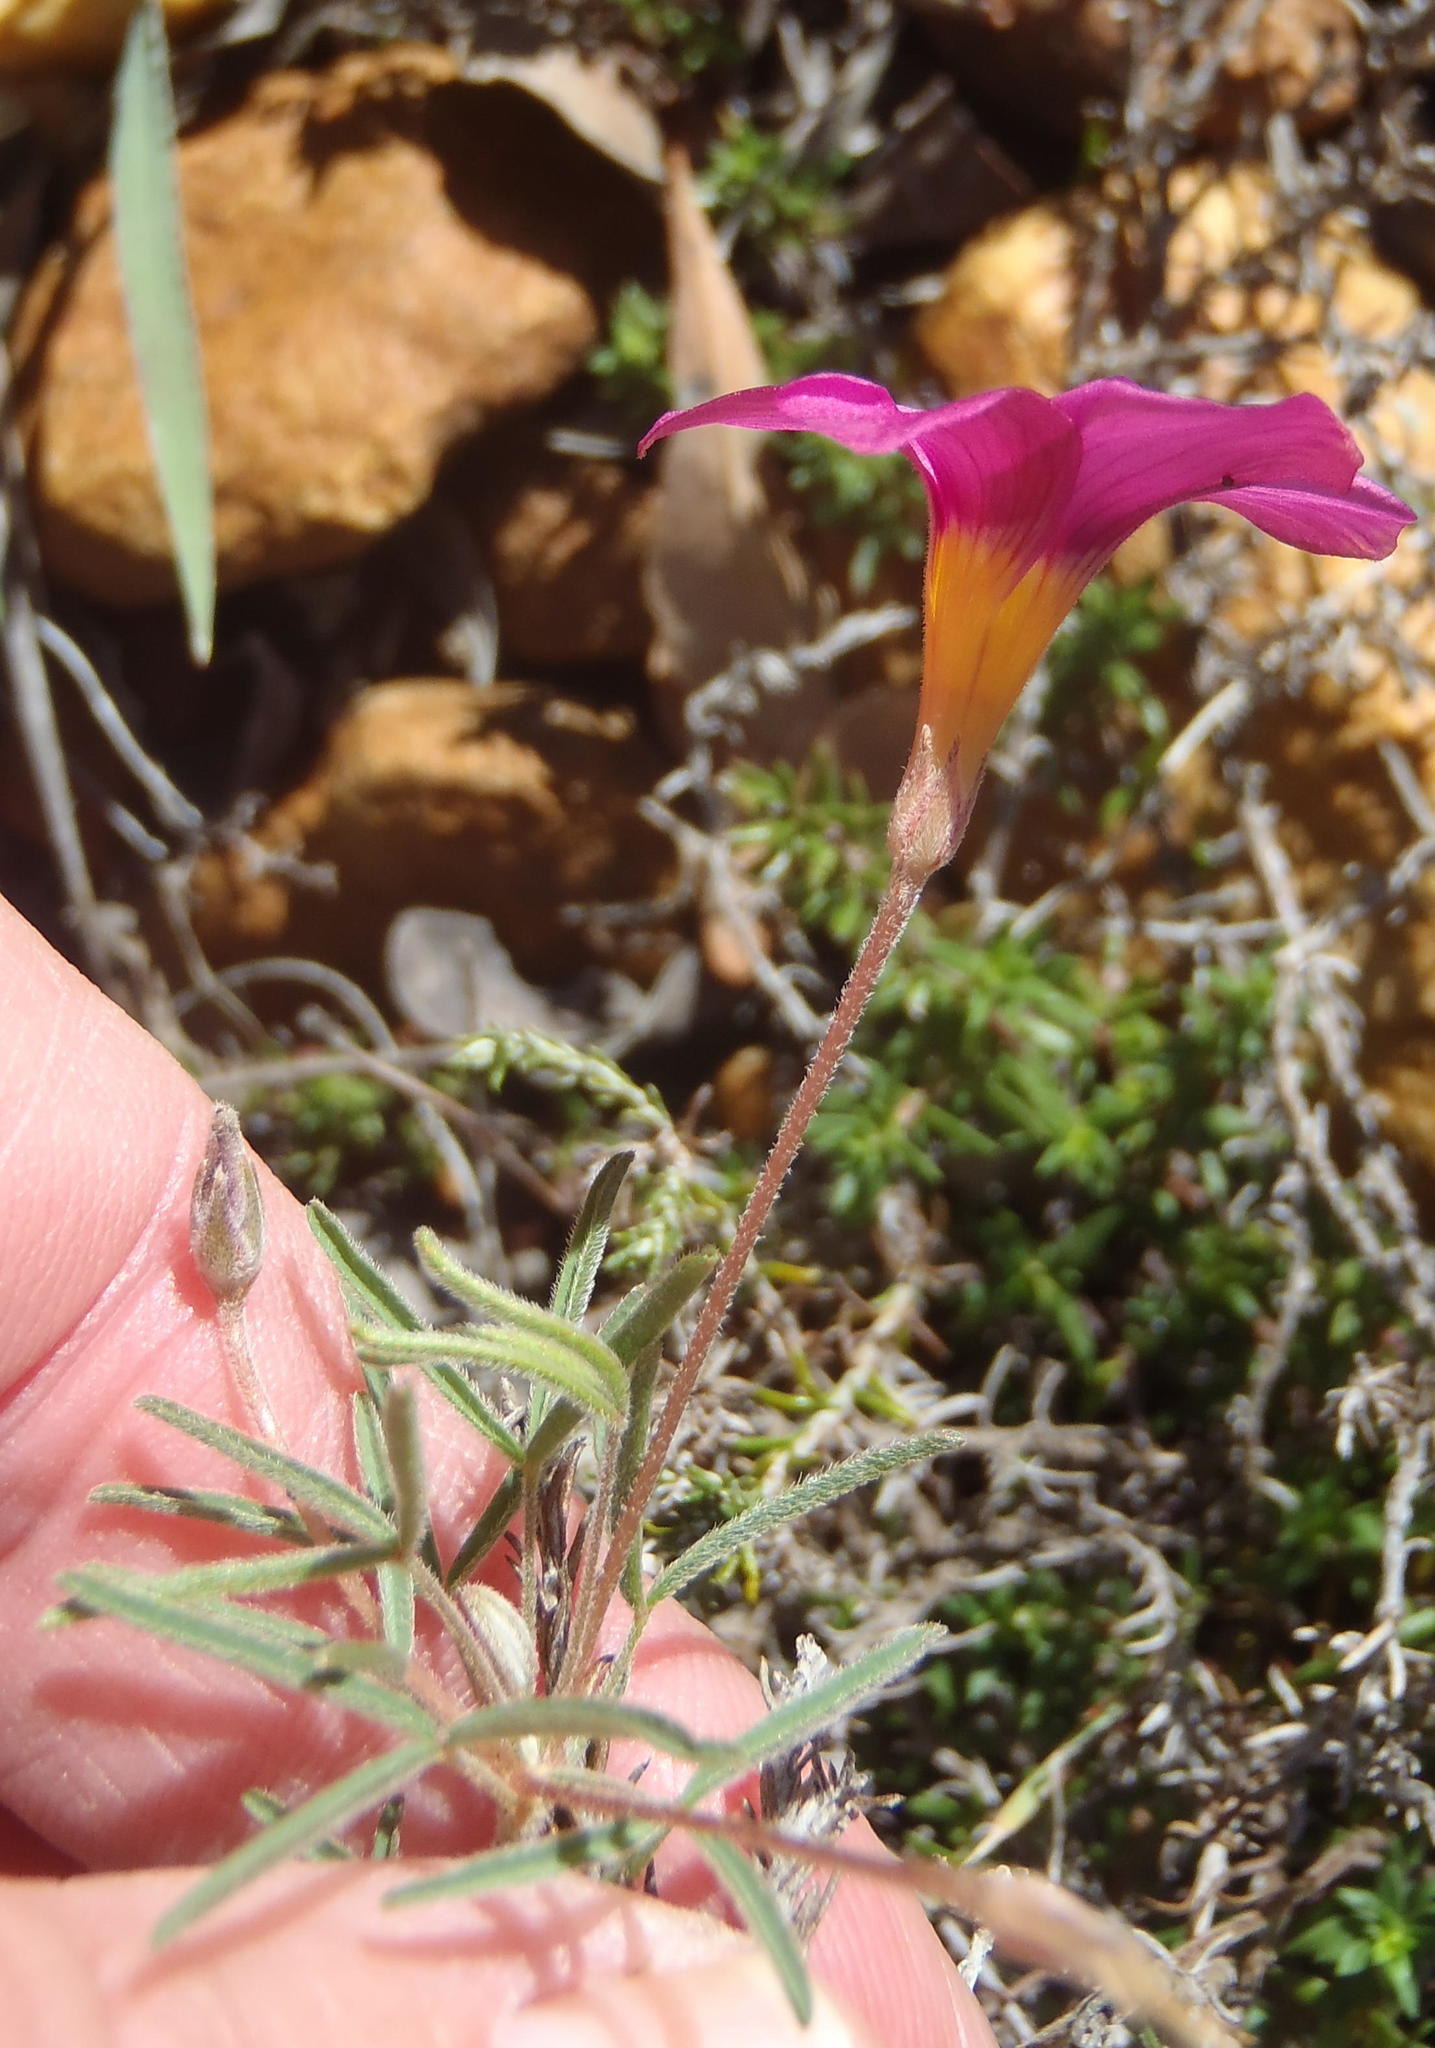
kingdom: Plantae
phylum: Tracheophyta
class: Magnoliopsida
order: Oxalidales
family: Oxalidaceae
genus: Oxalis
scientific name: Oxalis ciliaris
